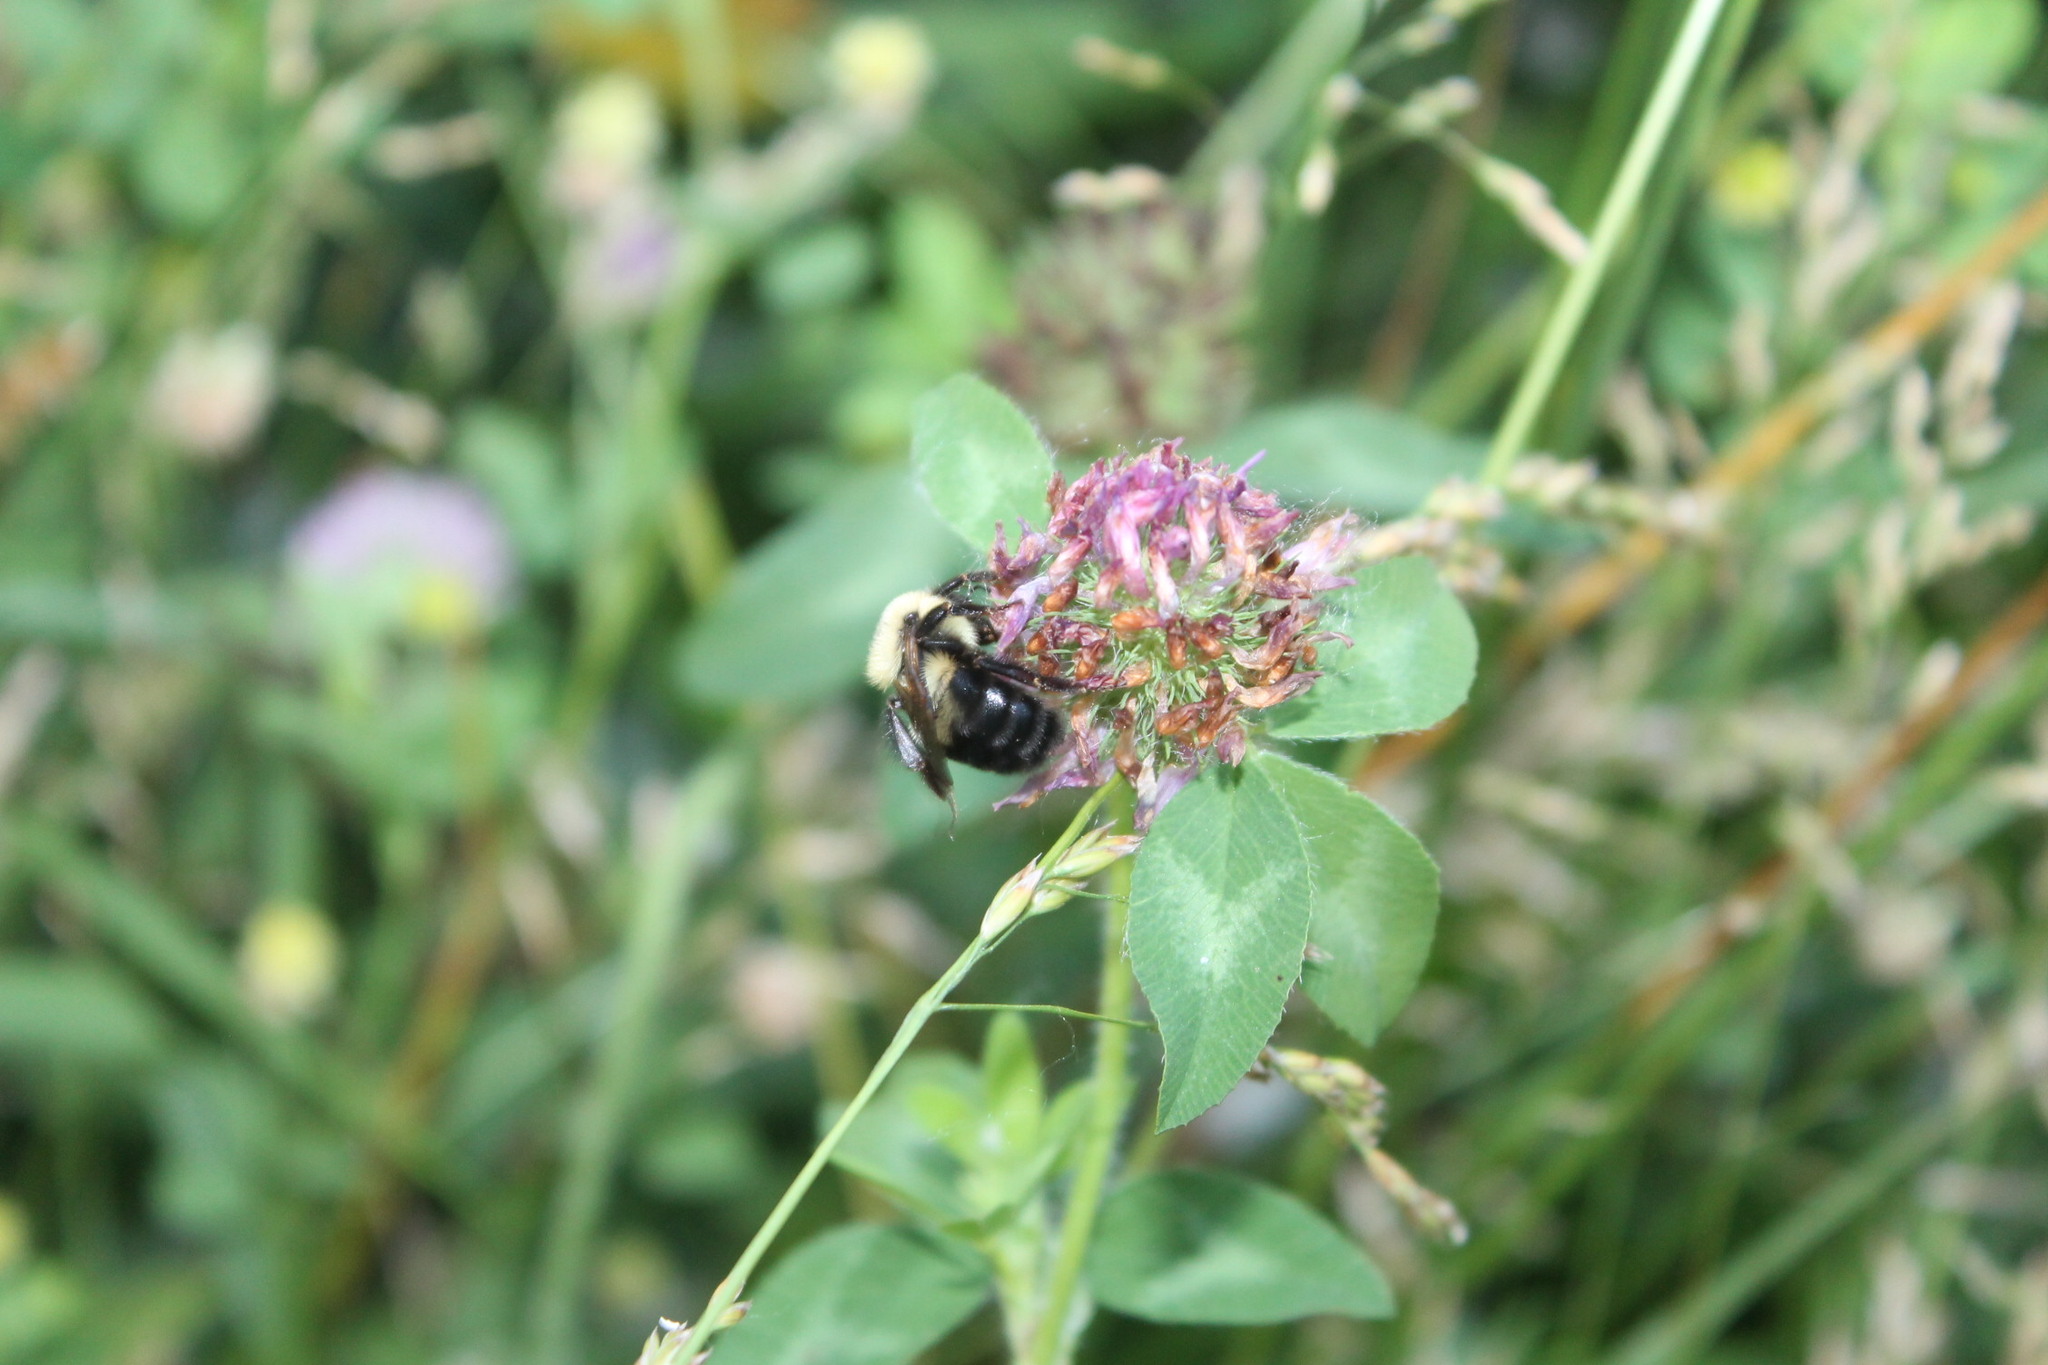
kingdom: Animalia
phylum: Arthropoda
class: Insecta
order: Hymenoptera
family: Apidae
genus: Bombus
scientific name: Bombus bimaculatus
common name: Two-spotted bumble bee
